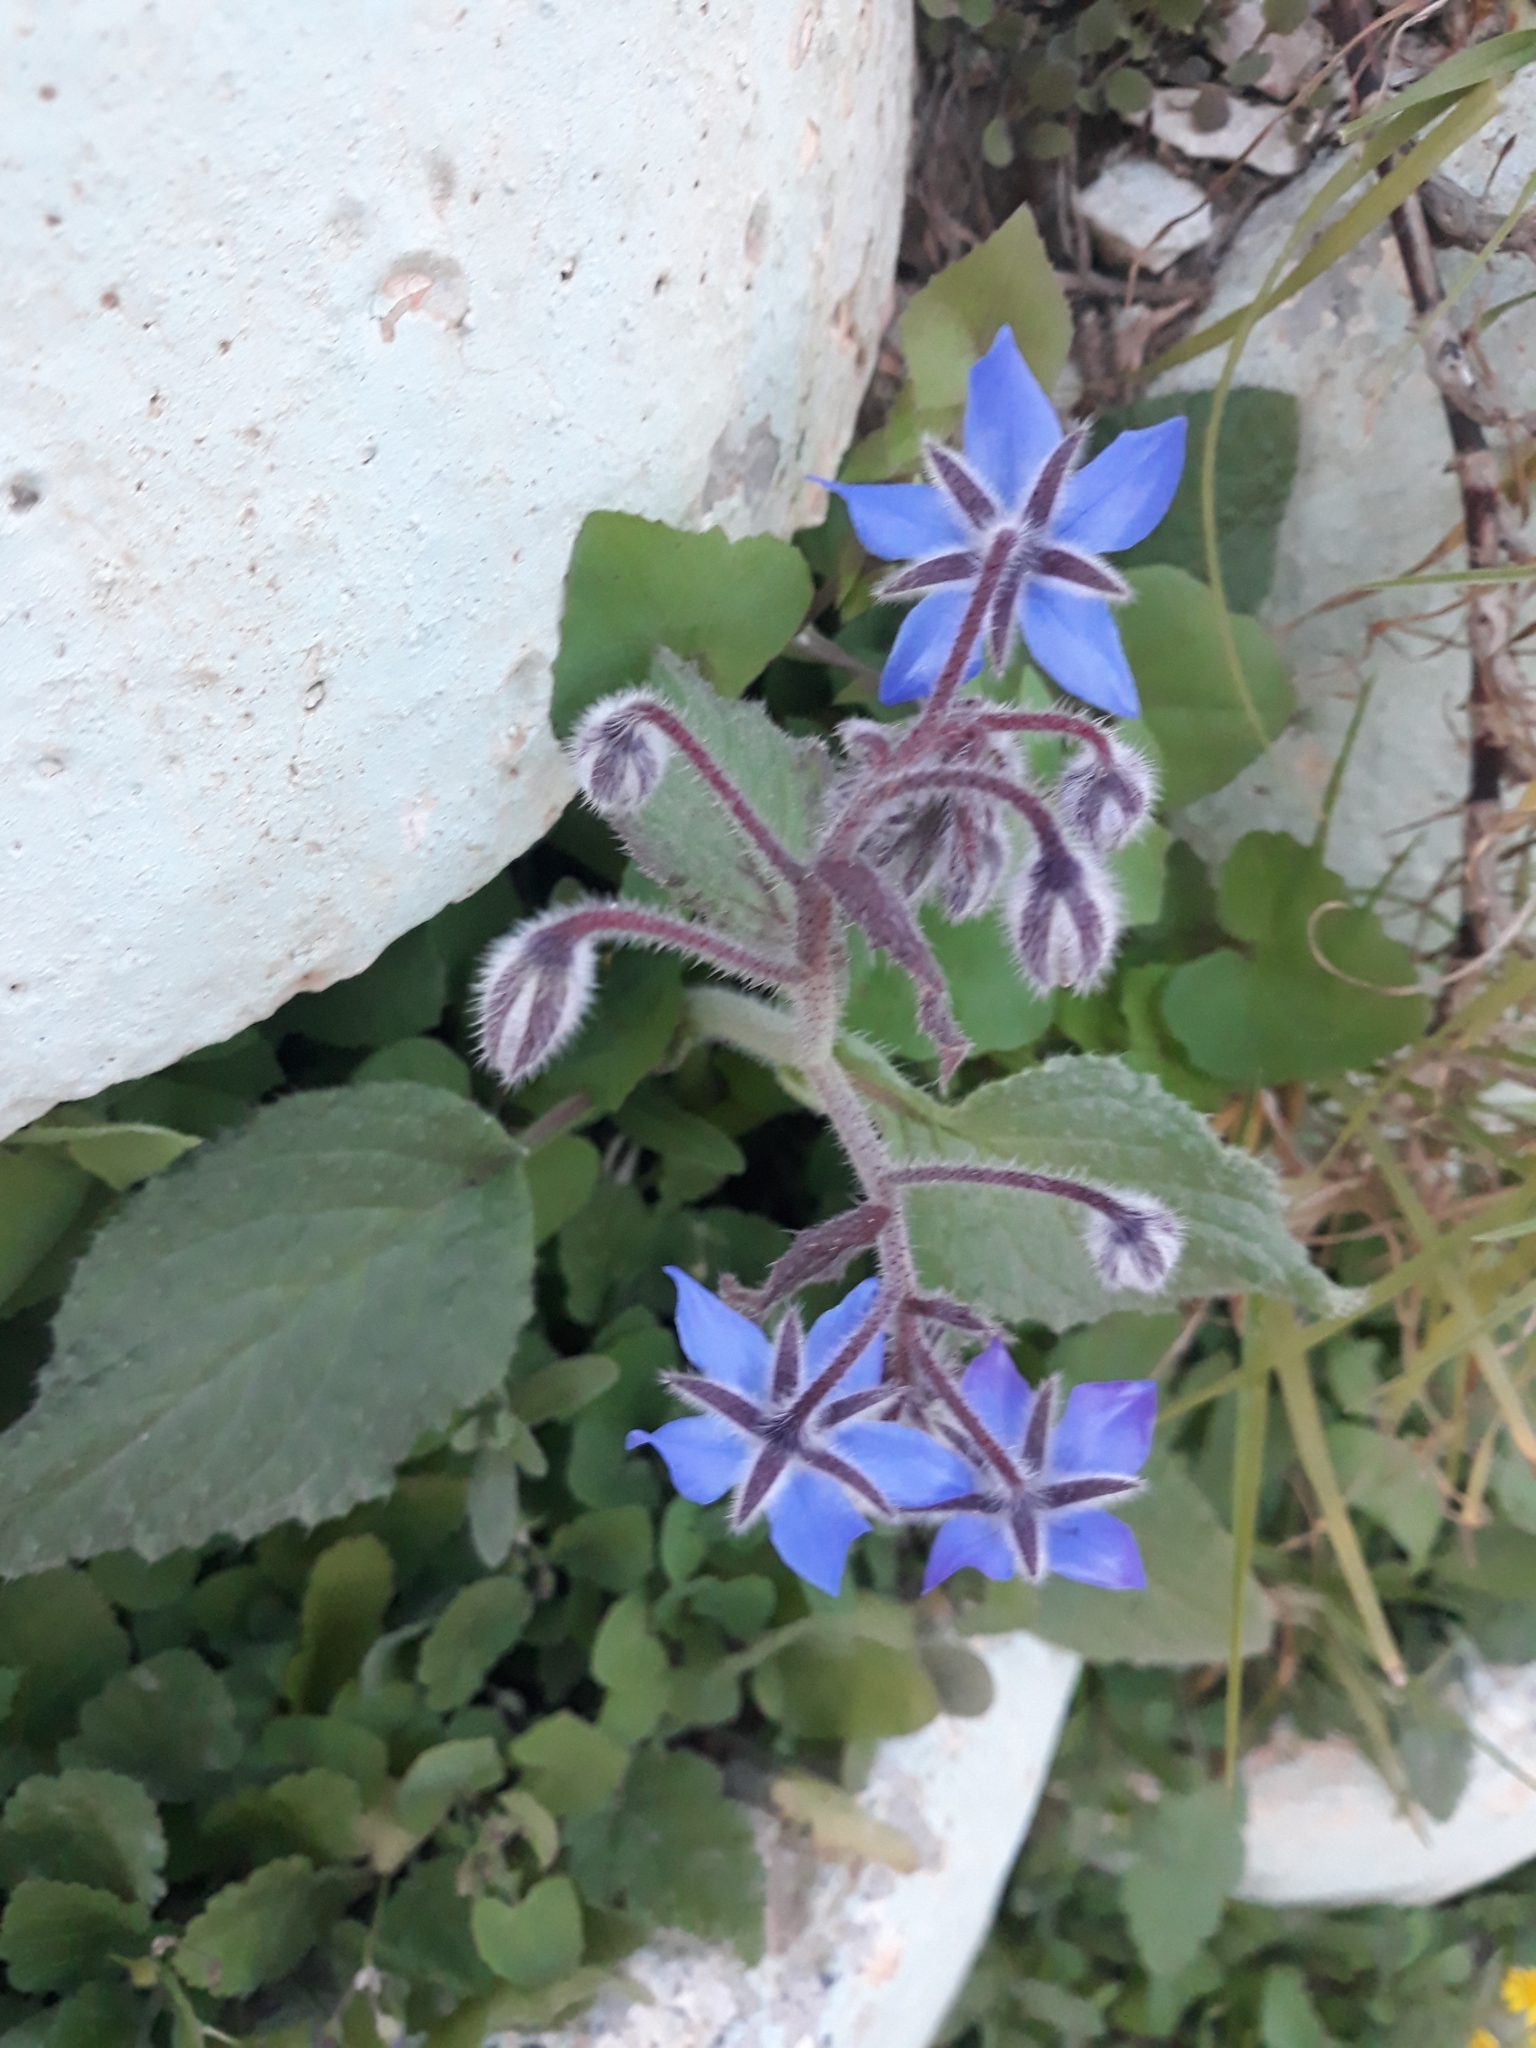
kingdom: Plantae
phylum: Tracheophyta
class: Magnoliopsida
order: Boraginales
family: Boraginaceae
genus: Borago
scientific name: Borago officinalis
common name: Borage
